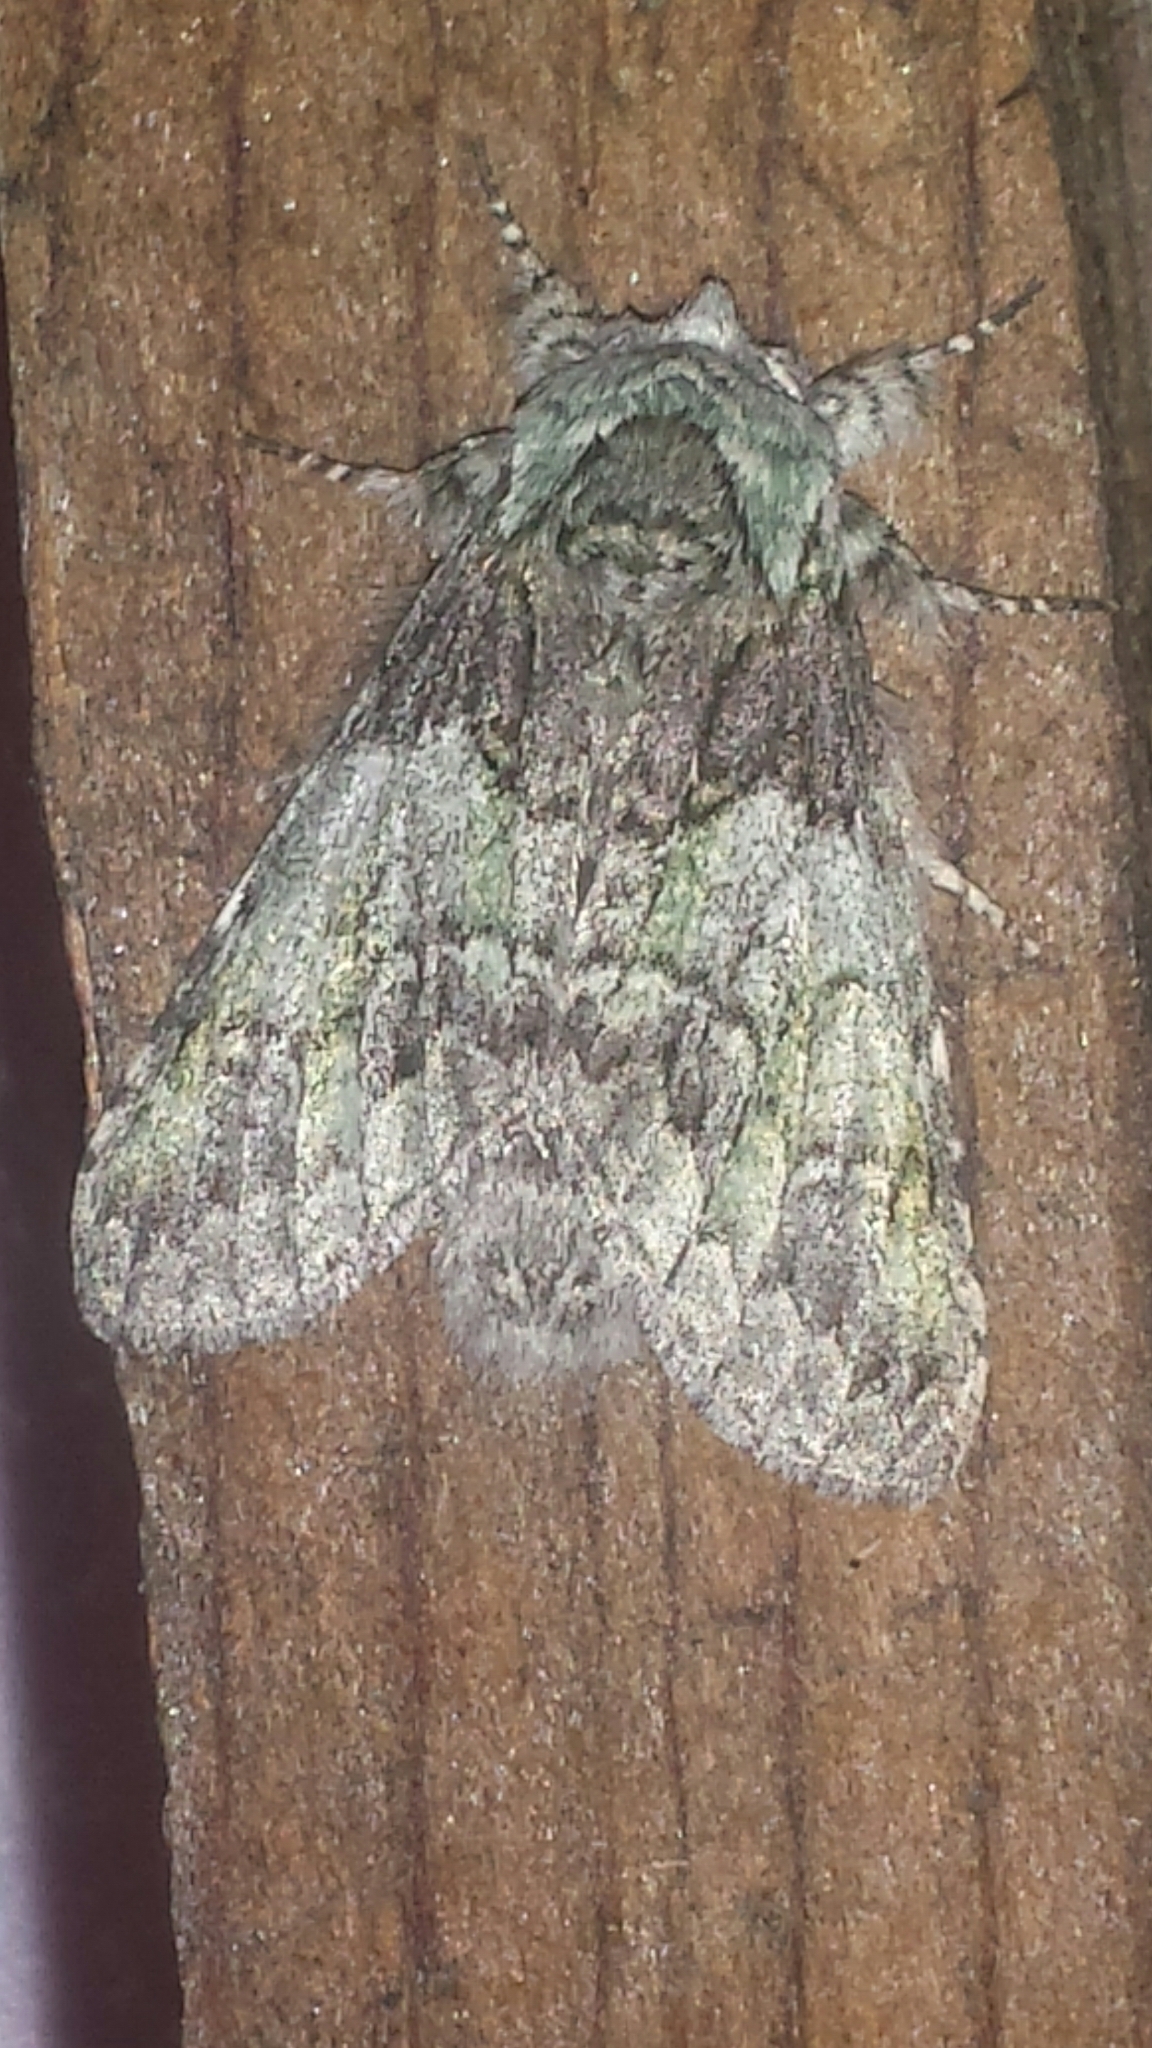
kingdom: Animalia
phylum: Arthropoda
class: Insecta
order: Lepidoptera
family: Notodontidae
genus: Macrurocampa
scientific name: Macrurocampa marthesia
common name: Mottled prominent
